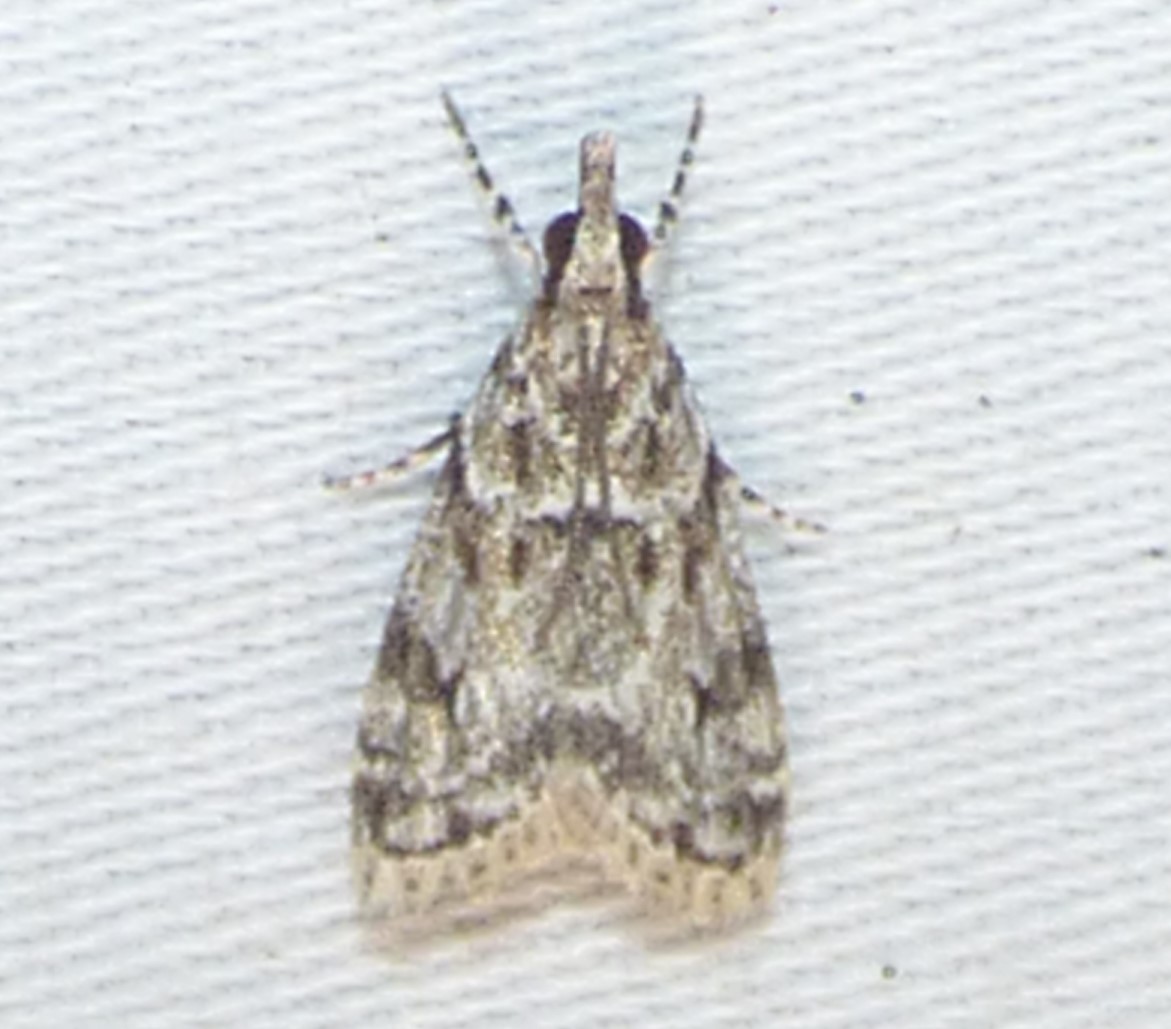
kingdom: Animalia
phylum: Arthropoda
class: Insecta
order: Lepidoptera
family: Crambidae
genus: Eudonia
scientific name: Eudonia heterosalis
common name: Mcdunnough's eudonia
